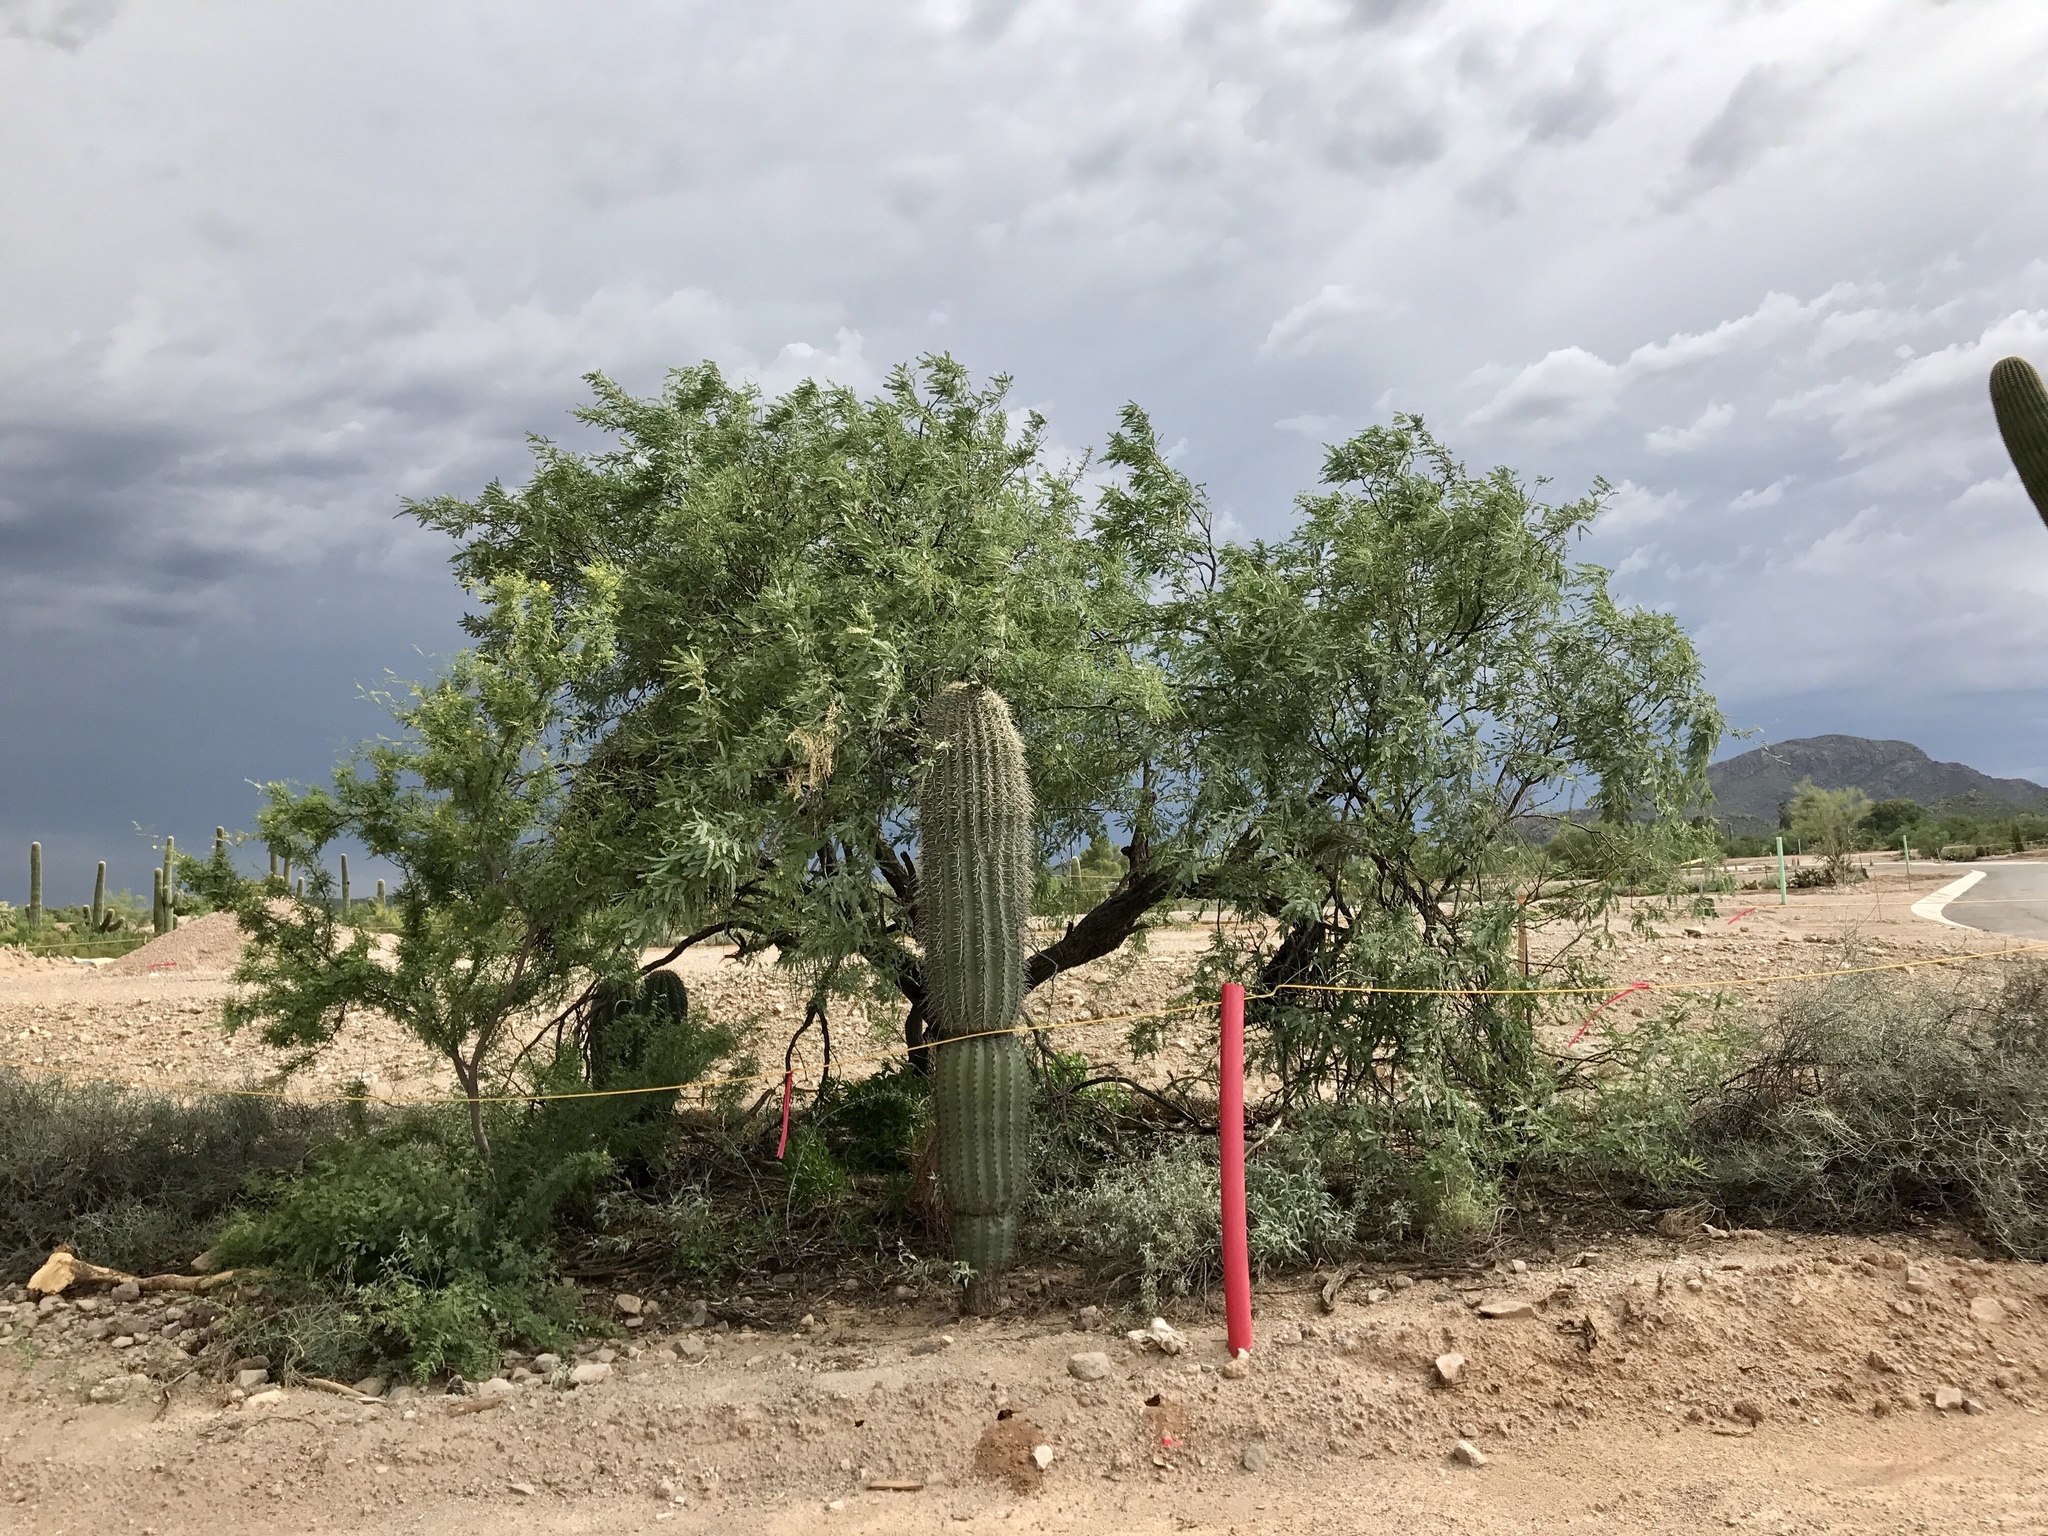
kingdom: Plantae
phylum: Tracheophyta
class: Magnoliopsida
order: Fabales
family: Fabaceae
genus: Prosopis
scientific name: Prosopis velutina
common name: Velvet mesquite
